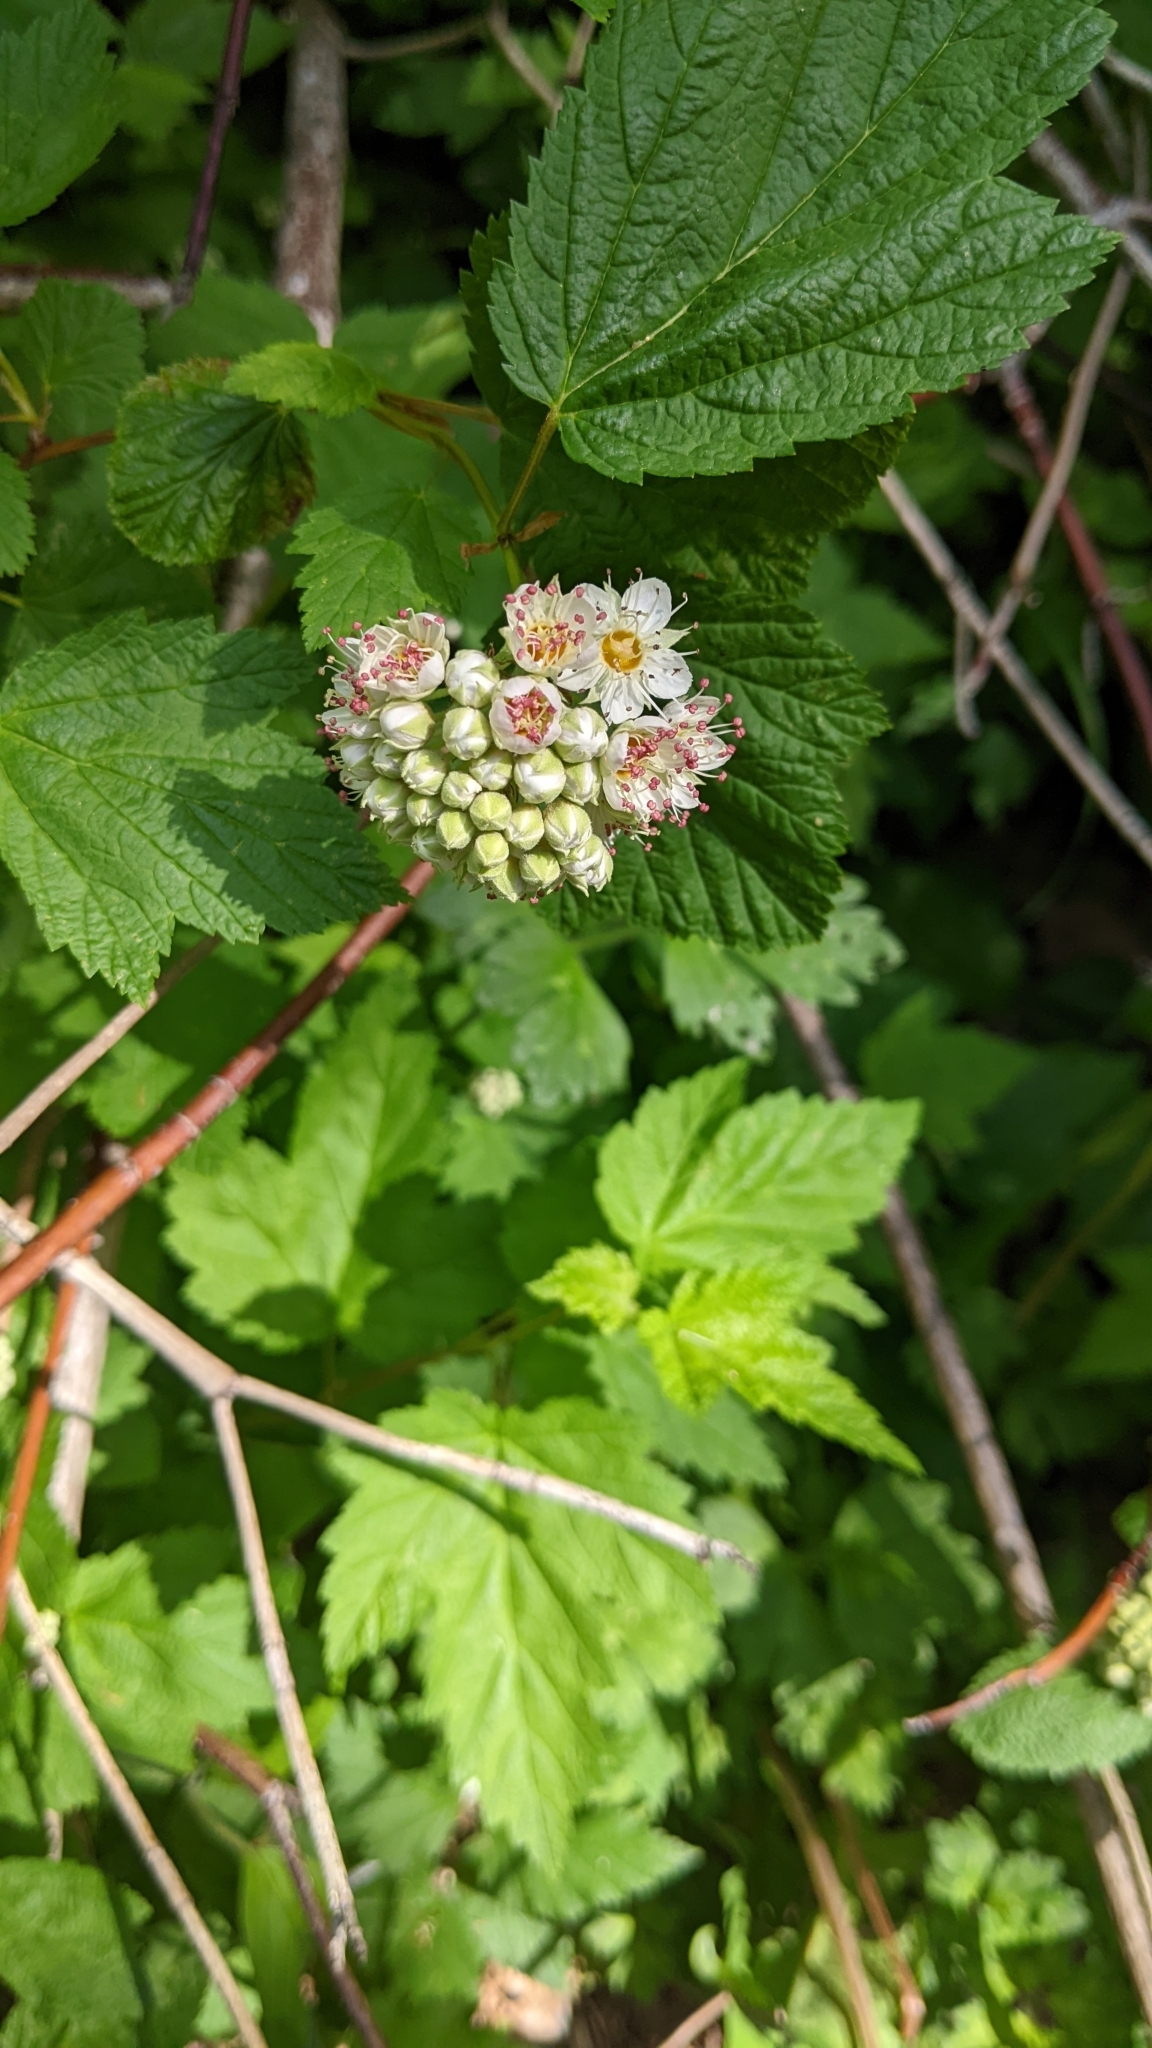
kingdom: Plantae
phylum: Tracheophyta
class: Magnoliopsida
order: Rosales
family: Rosaceae
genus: Physocarpus
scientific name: Physocarpus capitatus
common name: Pacific ninebark
